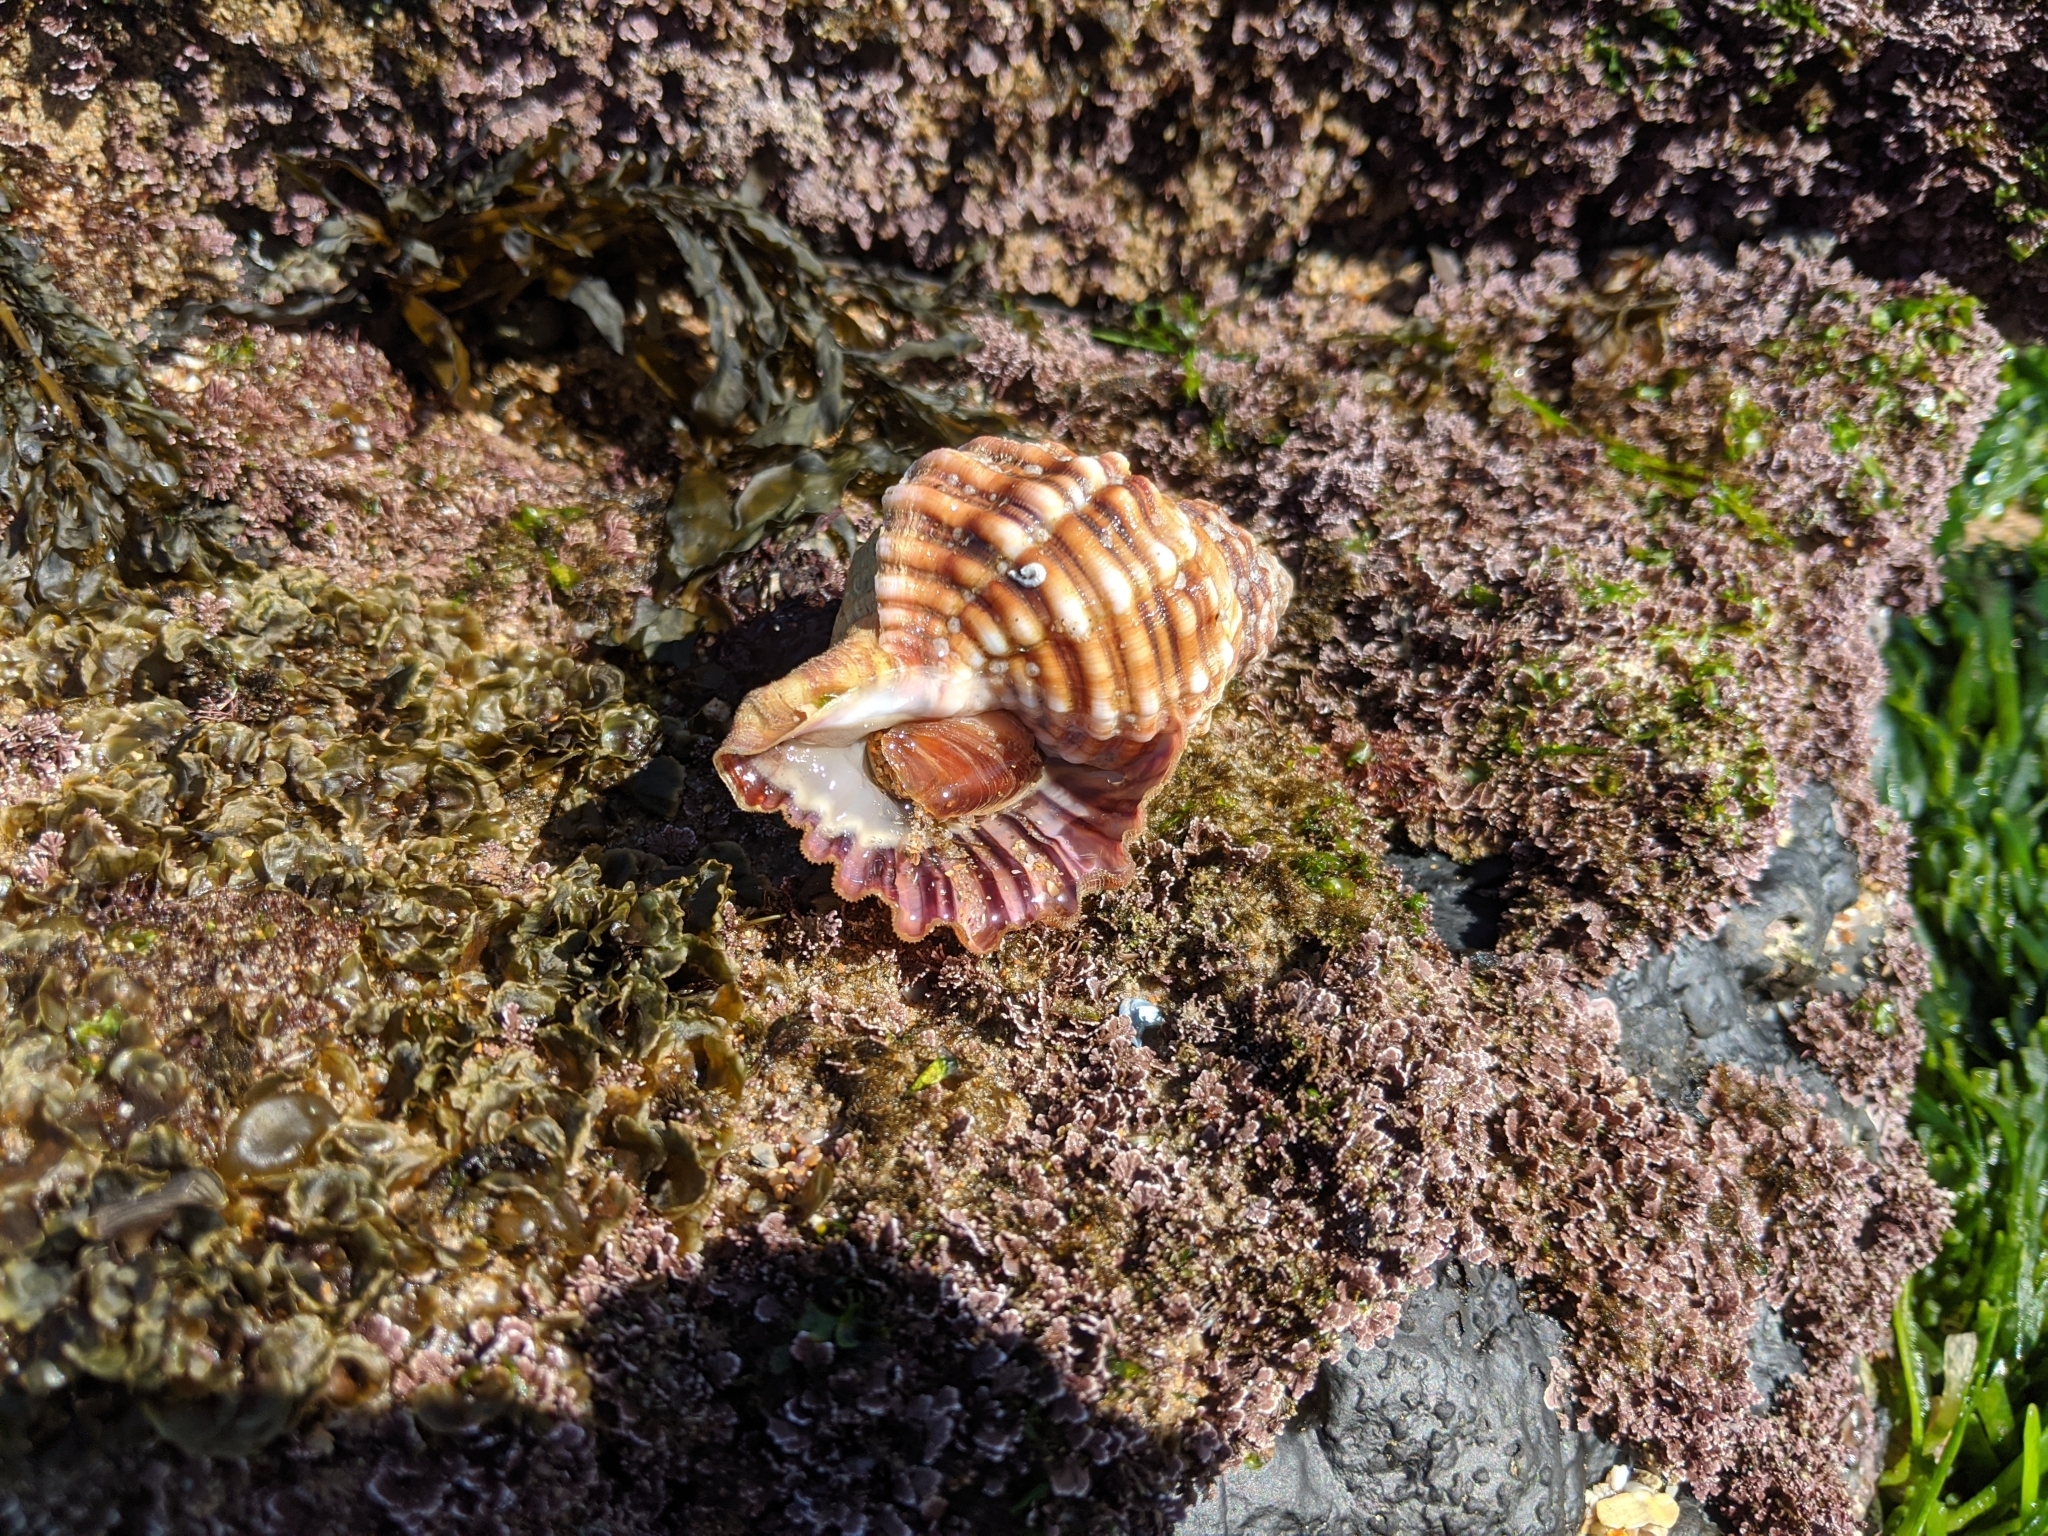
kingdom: Animalia
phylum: Mollusca
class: Gastropoda
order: Littorinimorpha
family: Cymatiidae
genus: Cabestana
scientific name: Cabestana spengleri
